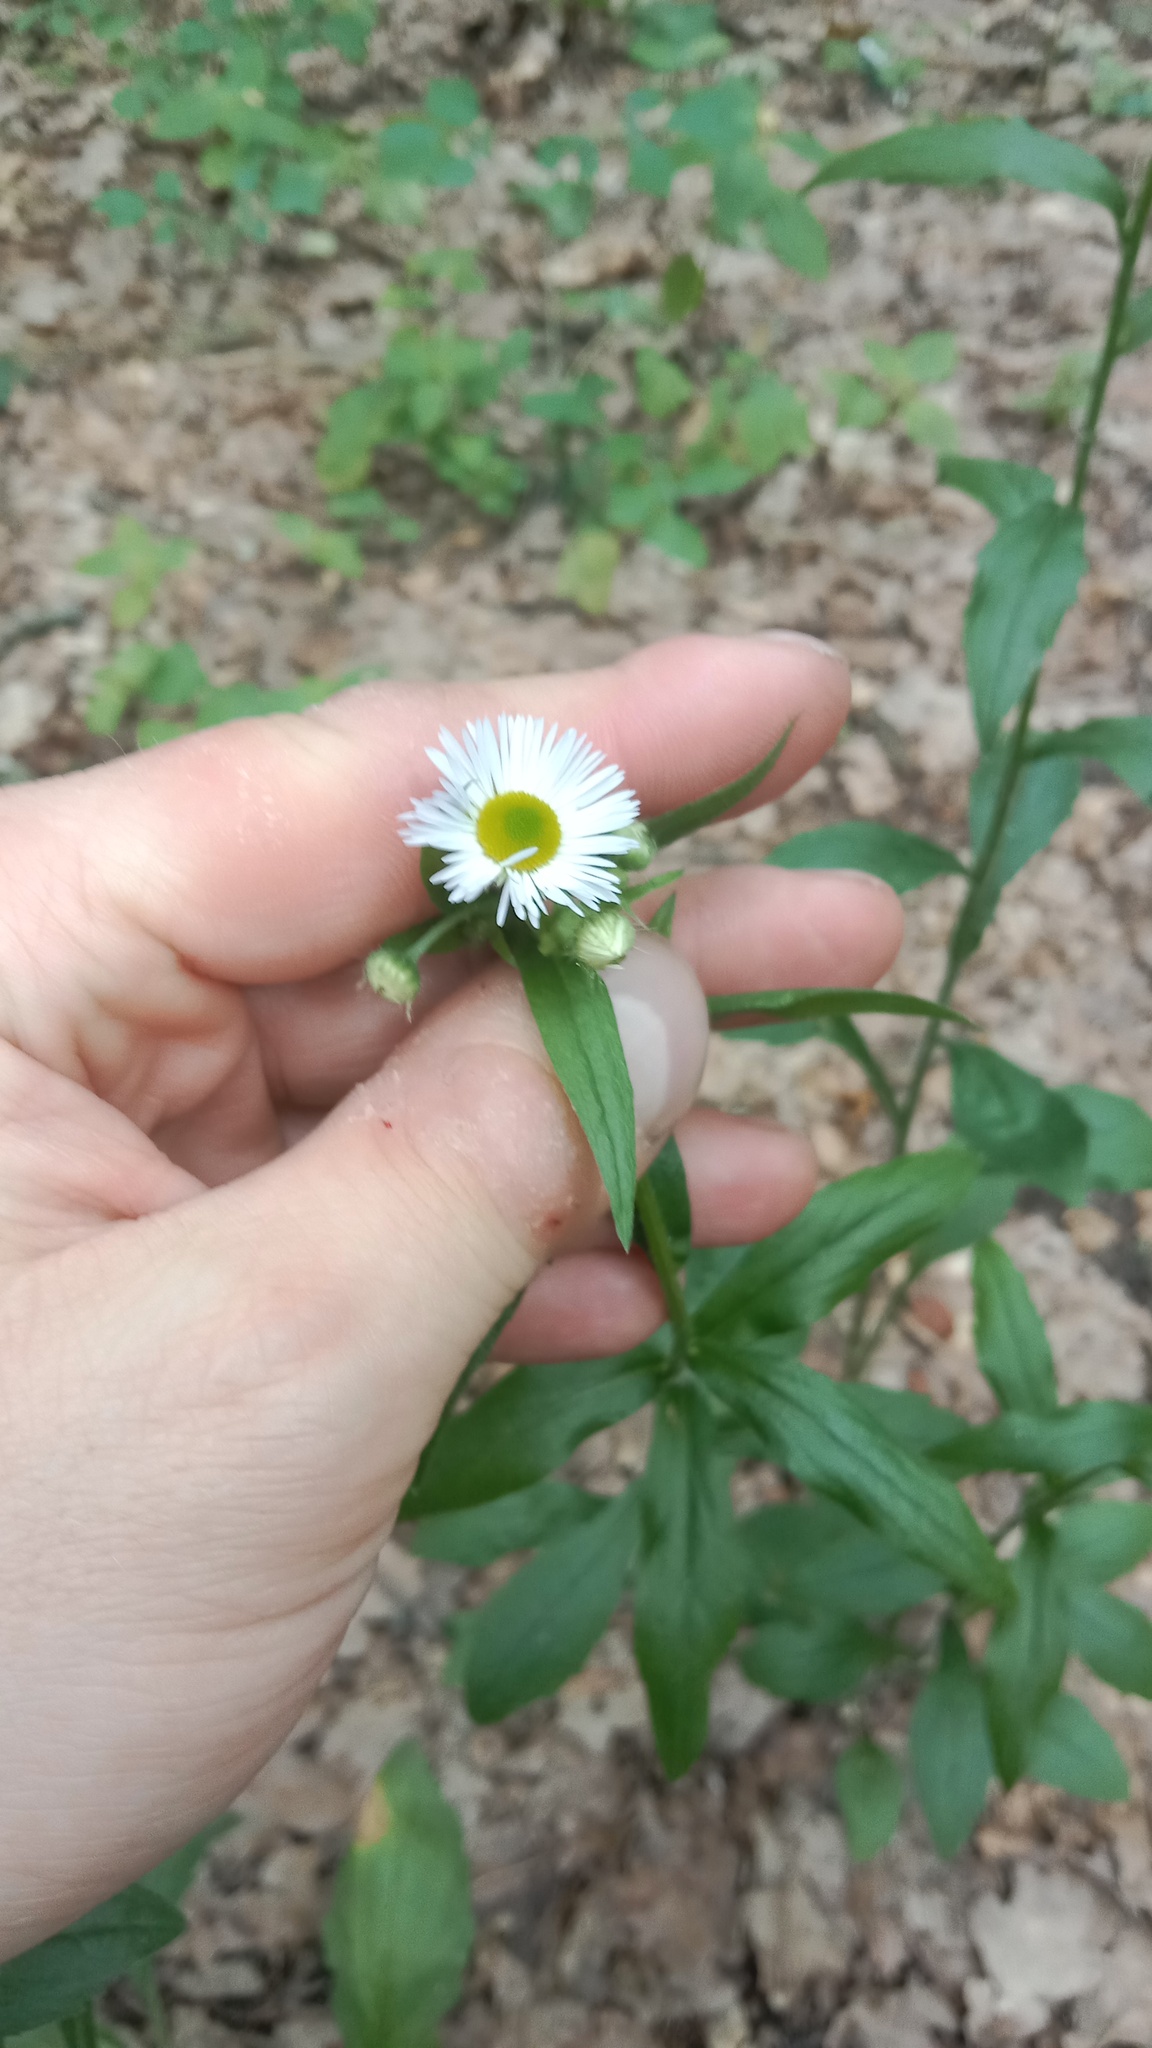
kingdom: Plantae
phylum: Tracheophyta
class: Magnoliopsida
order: Asterales
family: Asteraceae
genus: Erigeron
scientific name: Erigeron annuus
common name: Tall fleabane
